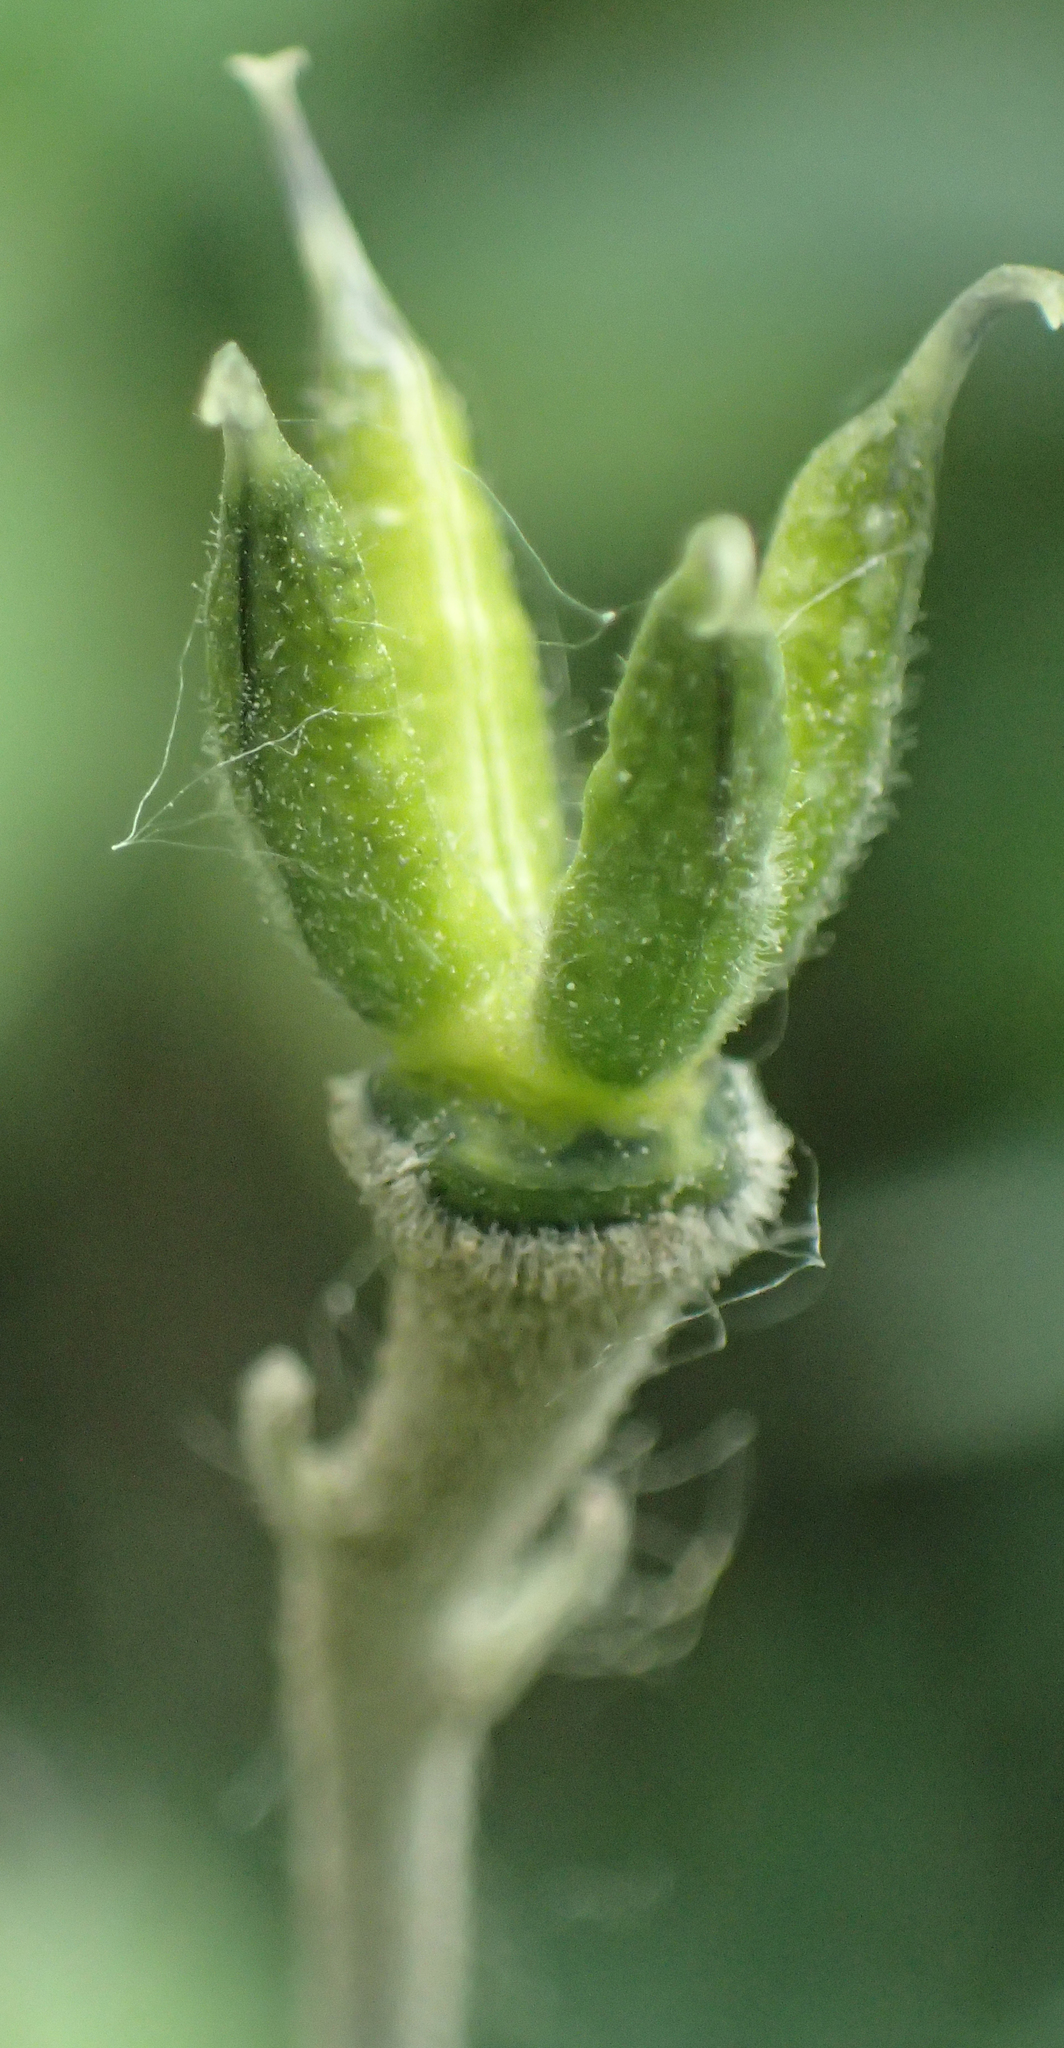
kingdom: Plantae
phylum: Tracheophyta
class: Magnoliopsida
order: Ranunculales
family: Ranunculaceae
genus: Aconitum
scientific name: Aconitum delphiniifolium
